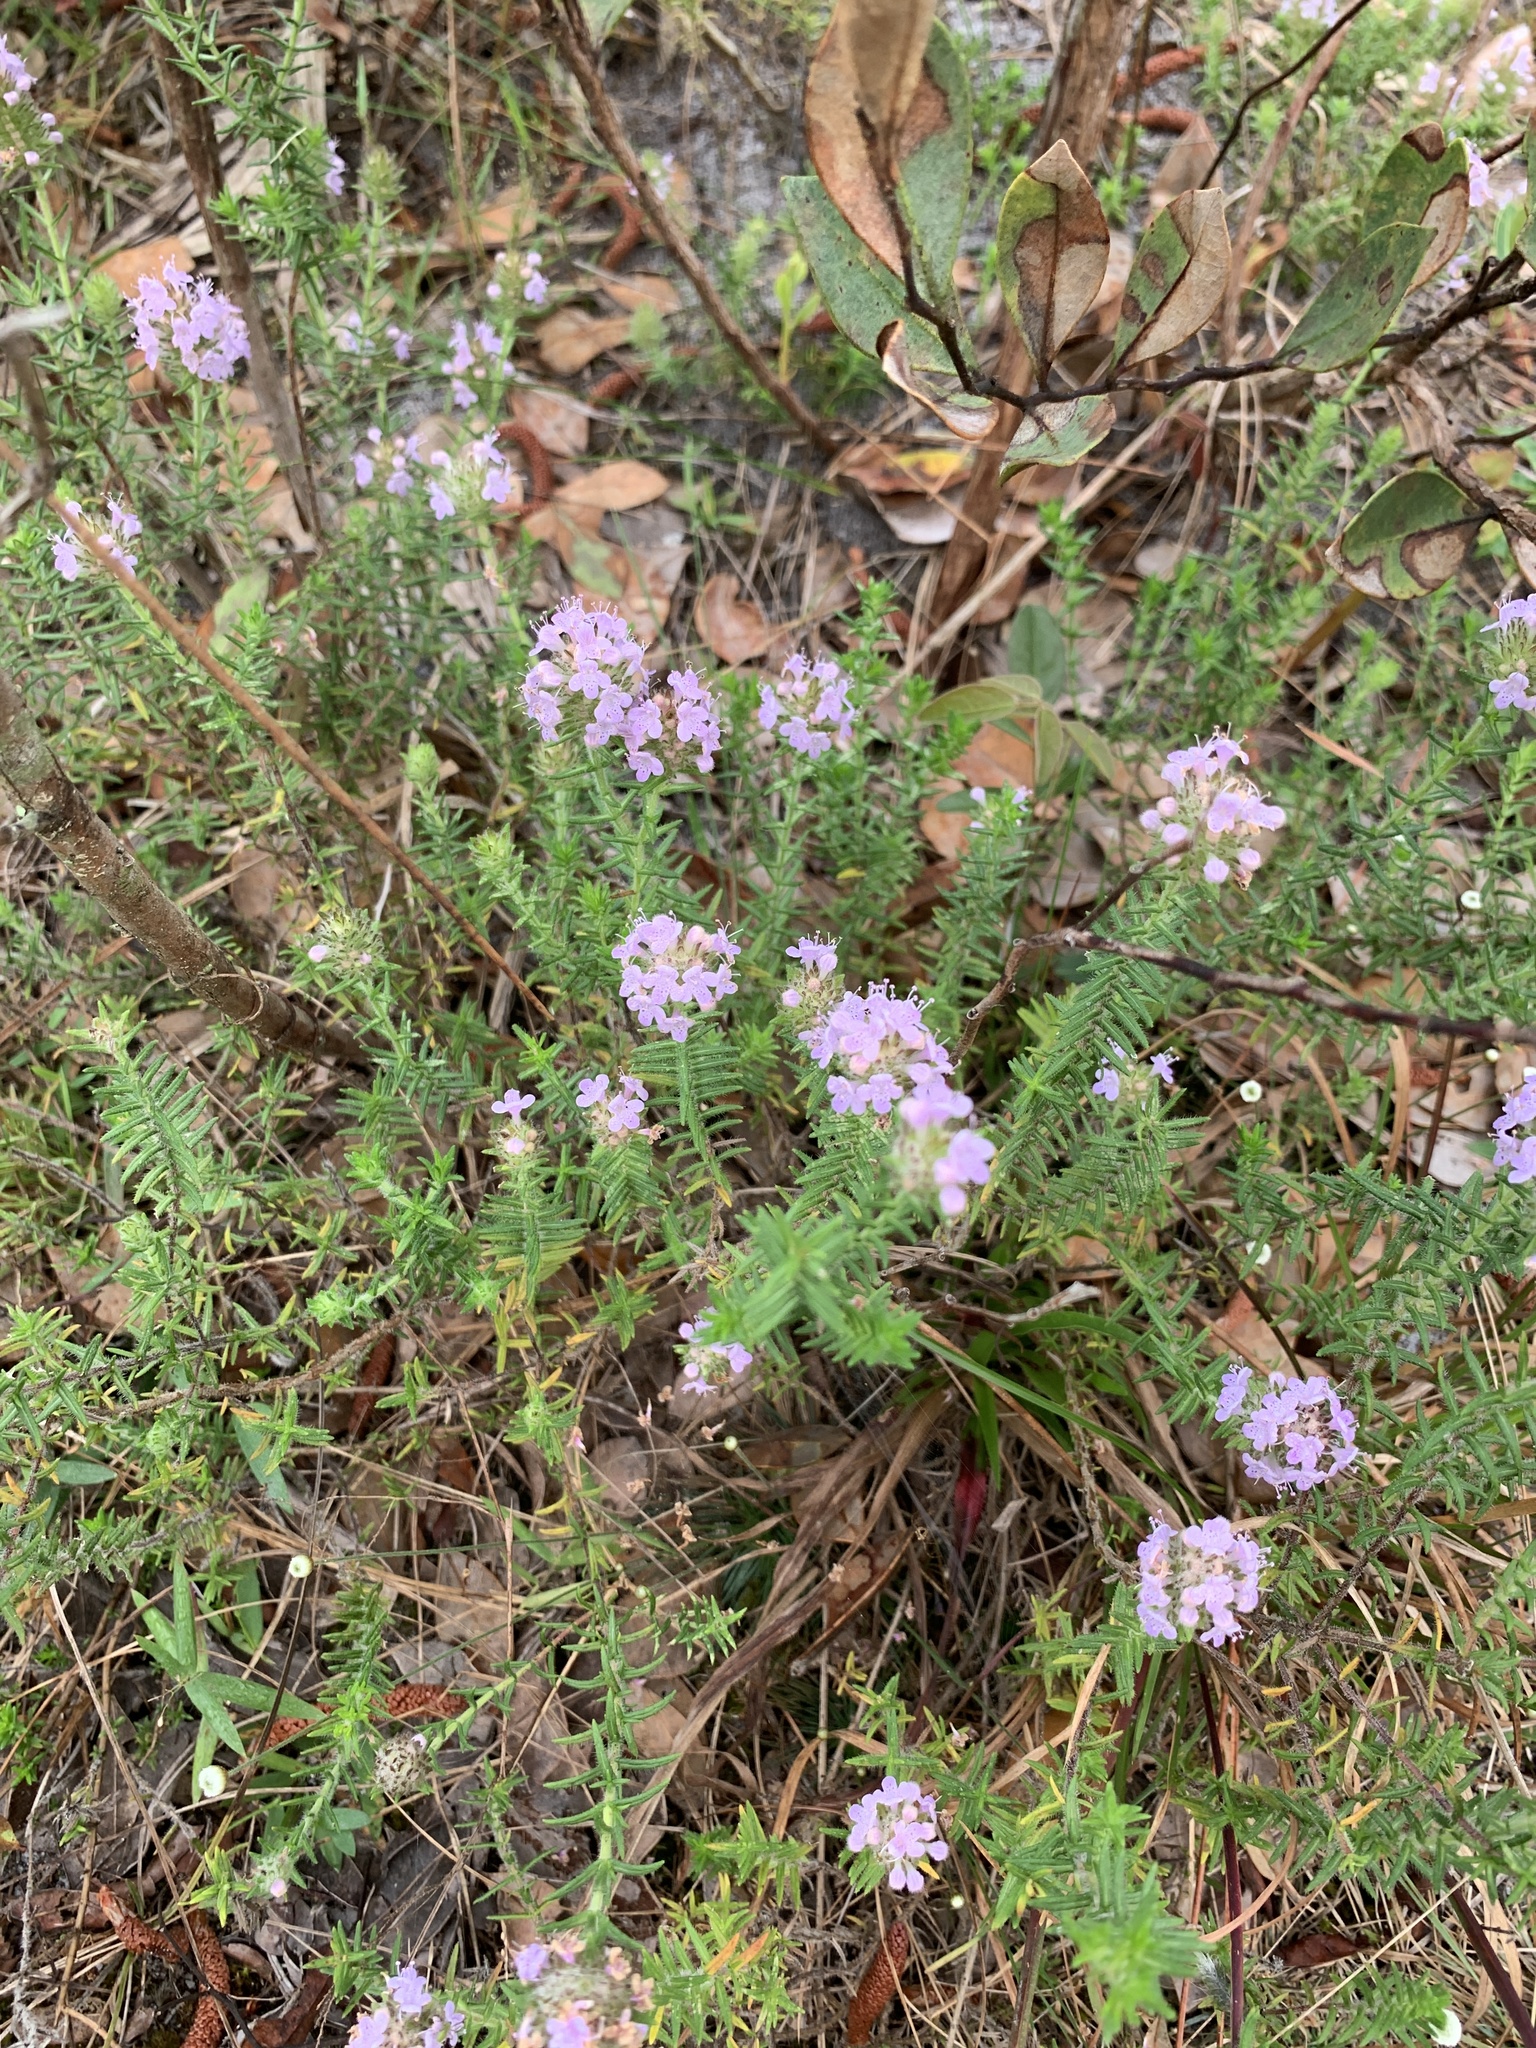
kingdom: Plantae
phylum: Tracheophyta
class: Magnoliopsida
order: Lamiales
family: Lamiaceae
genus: Piloblephis
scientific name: Piloblephis rigida
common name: Wild pennyroyal
